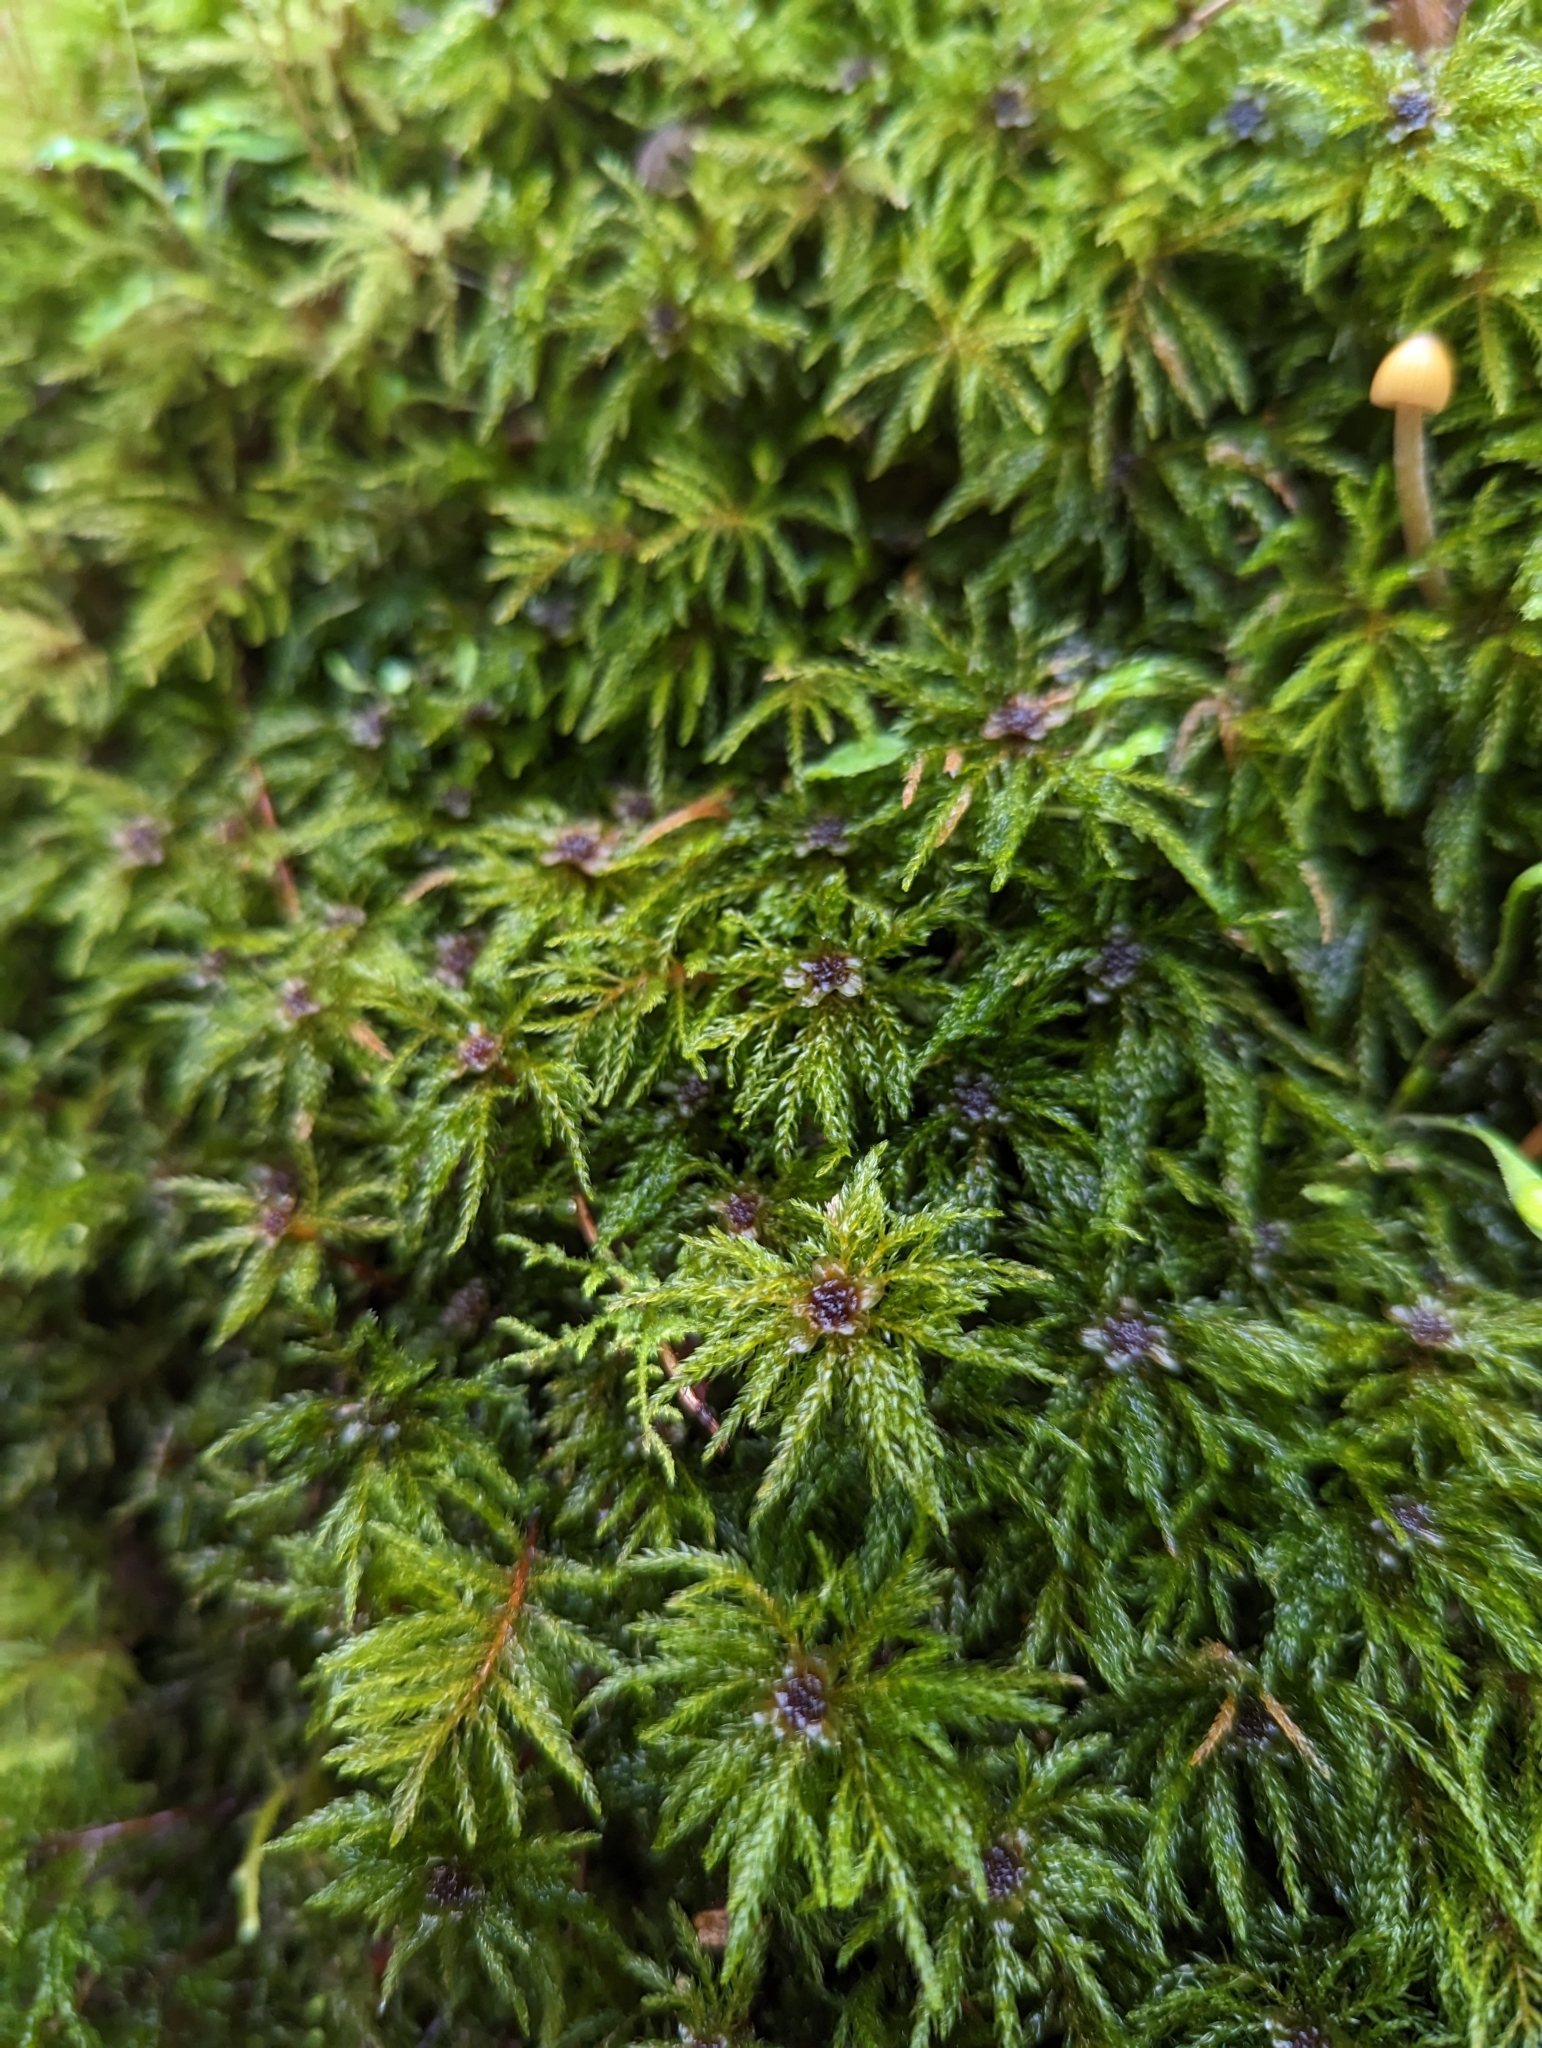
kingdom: Plantae
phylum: Bryophyta
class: Bryopsida
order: Bryales
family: Mniaceae
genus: Leucolepis
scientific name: Leucolepis acanthoneura
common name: Leucolepis umbrella moss
